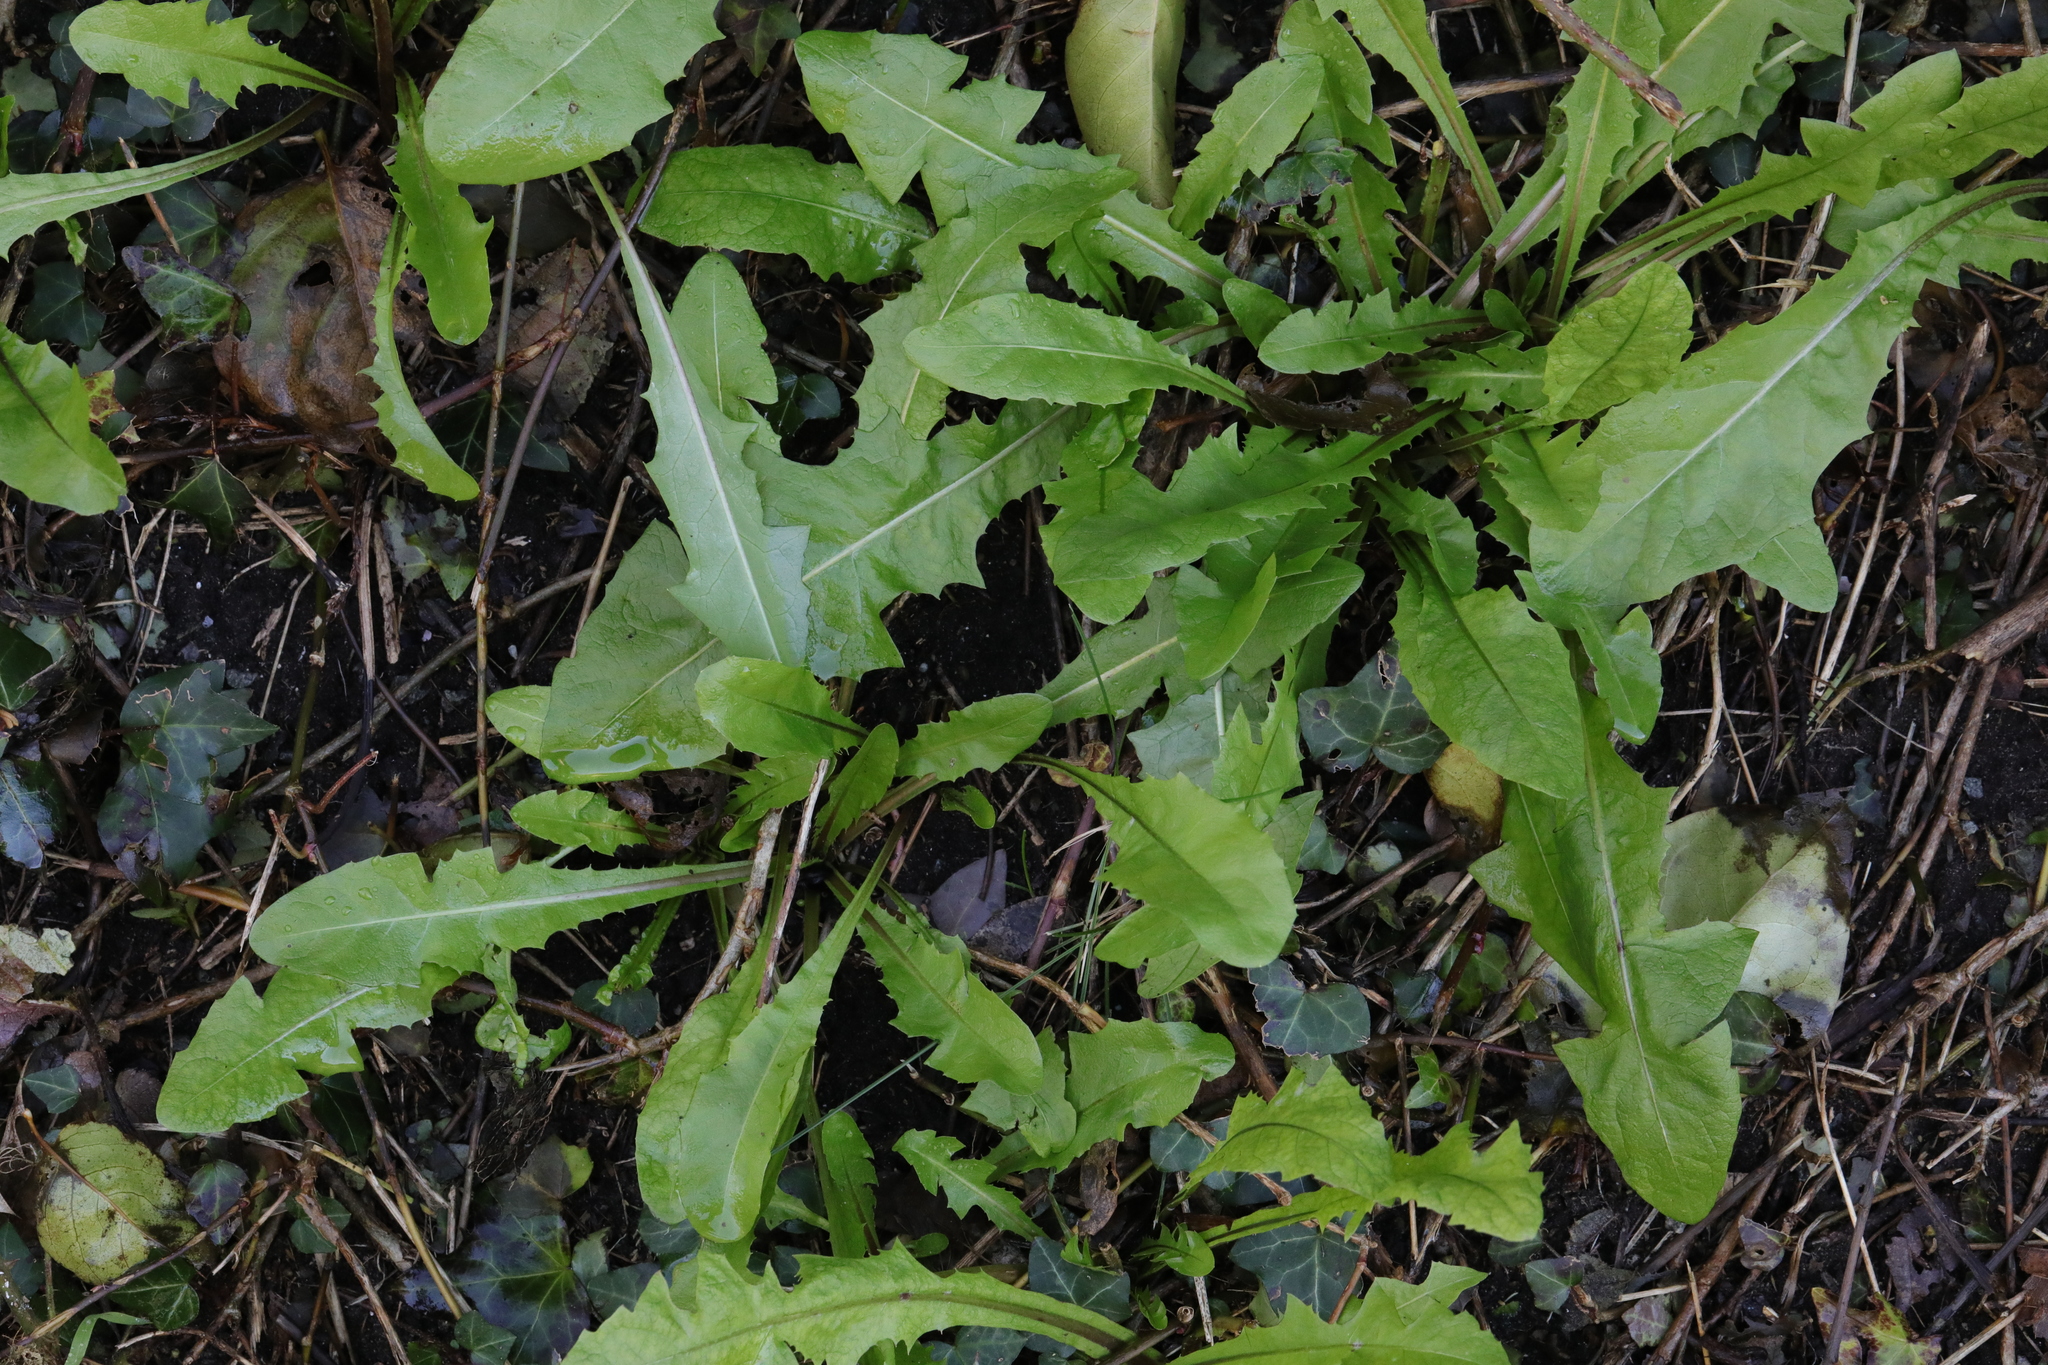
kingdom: Plantae
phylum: Tracheophyta
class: Magnoliopsida
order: Asterales
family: Asteraceae
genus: Taraxacum
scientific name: Taraxacum officinale
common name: Common dandelion
